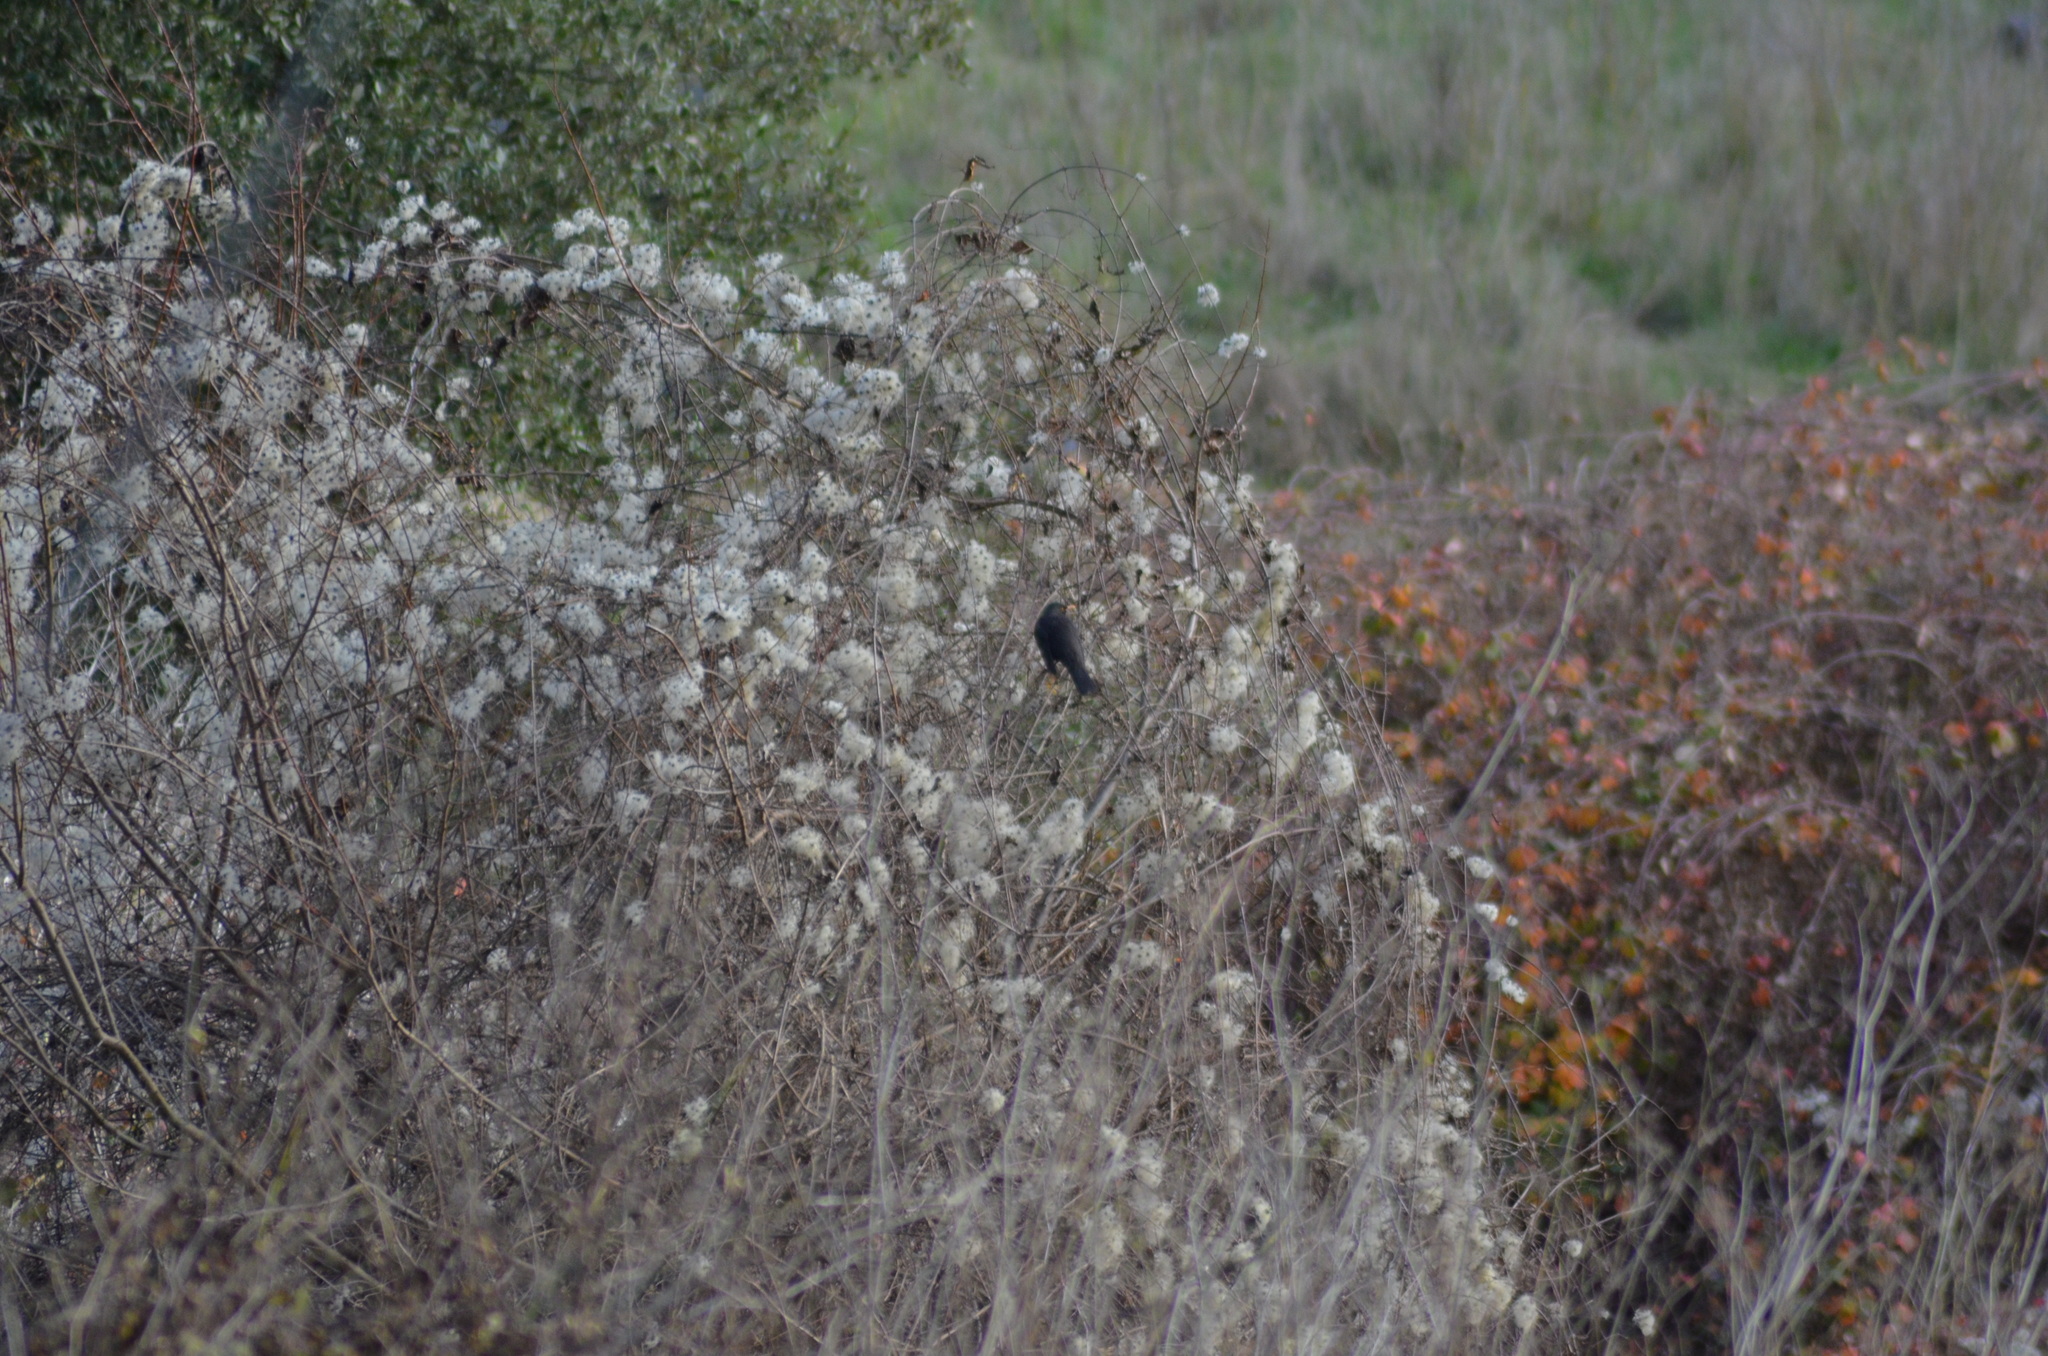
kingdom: Animalia
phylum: Chordata
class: Aves
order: Passeriformes
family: Turdidae
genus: Turdus
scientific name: Turdus merula
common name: Common blackbird
